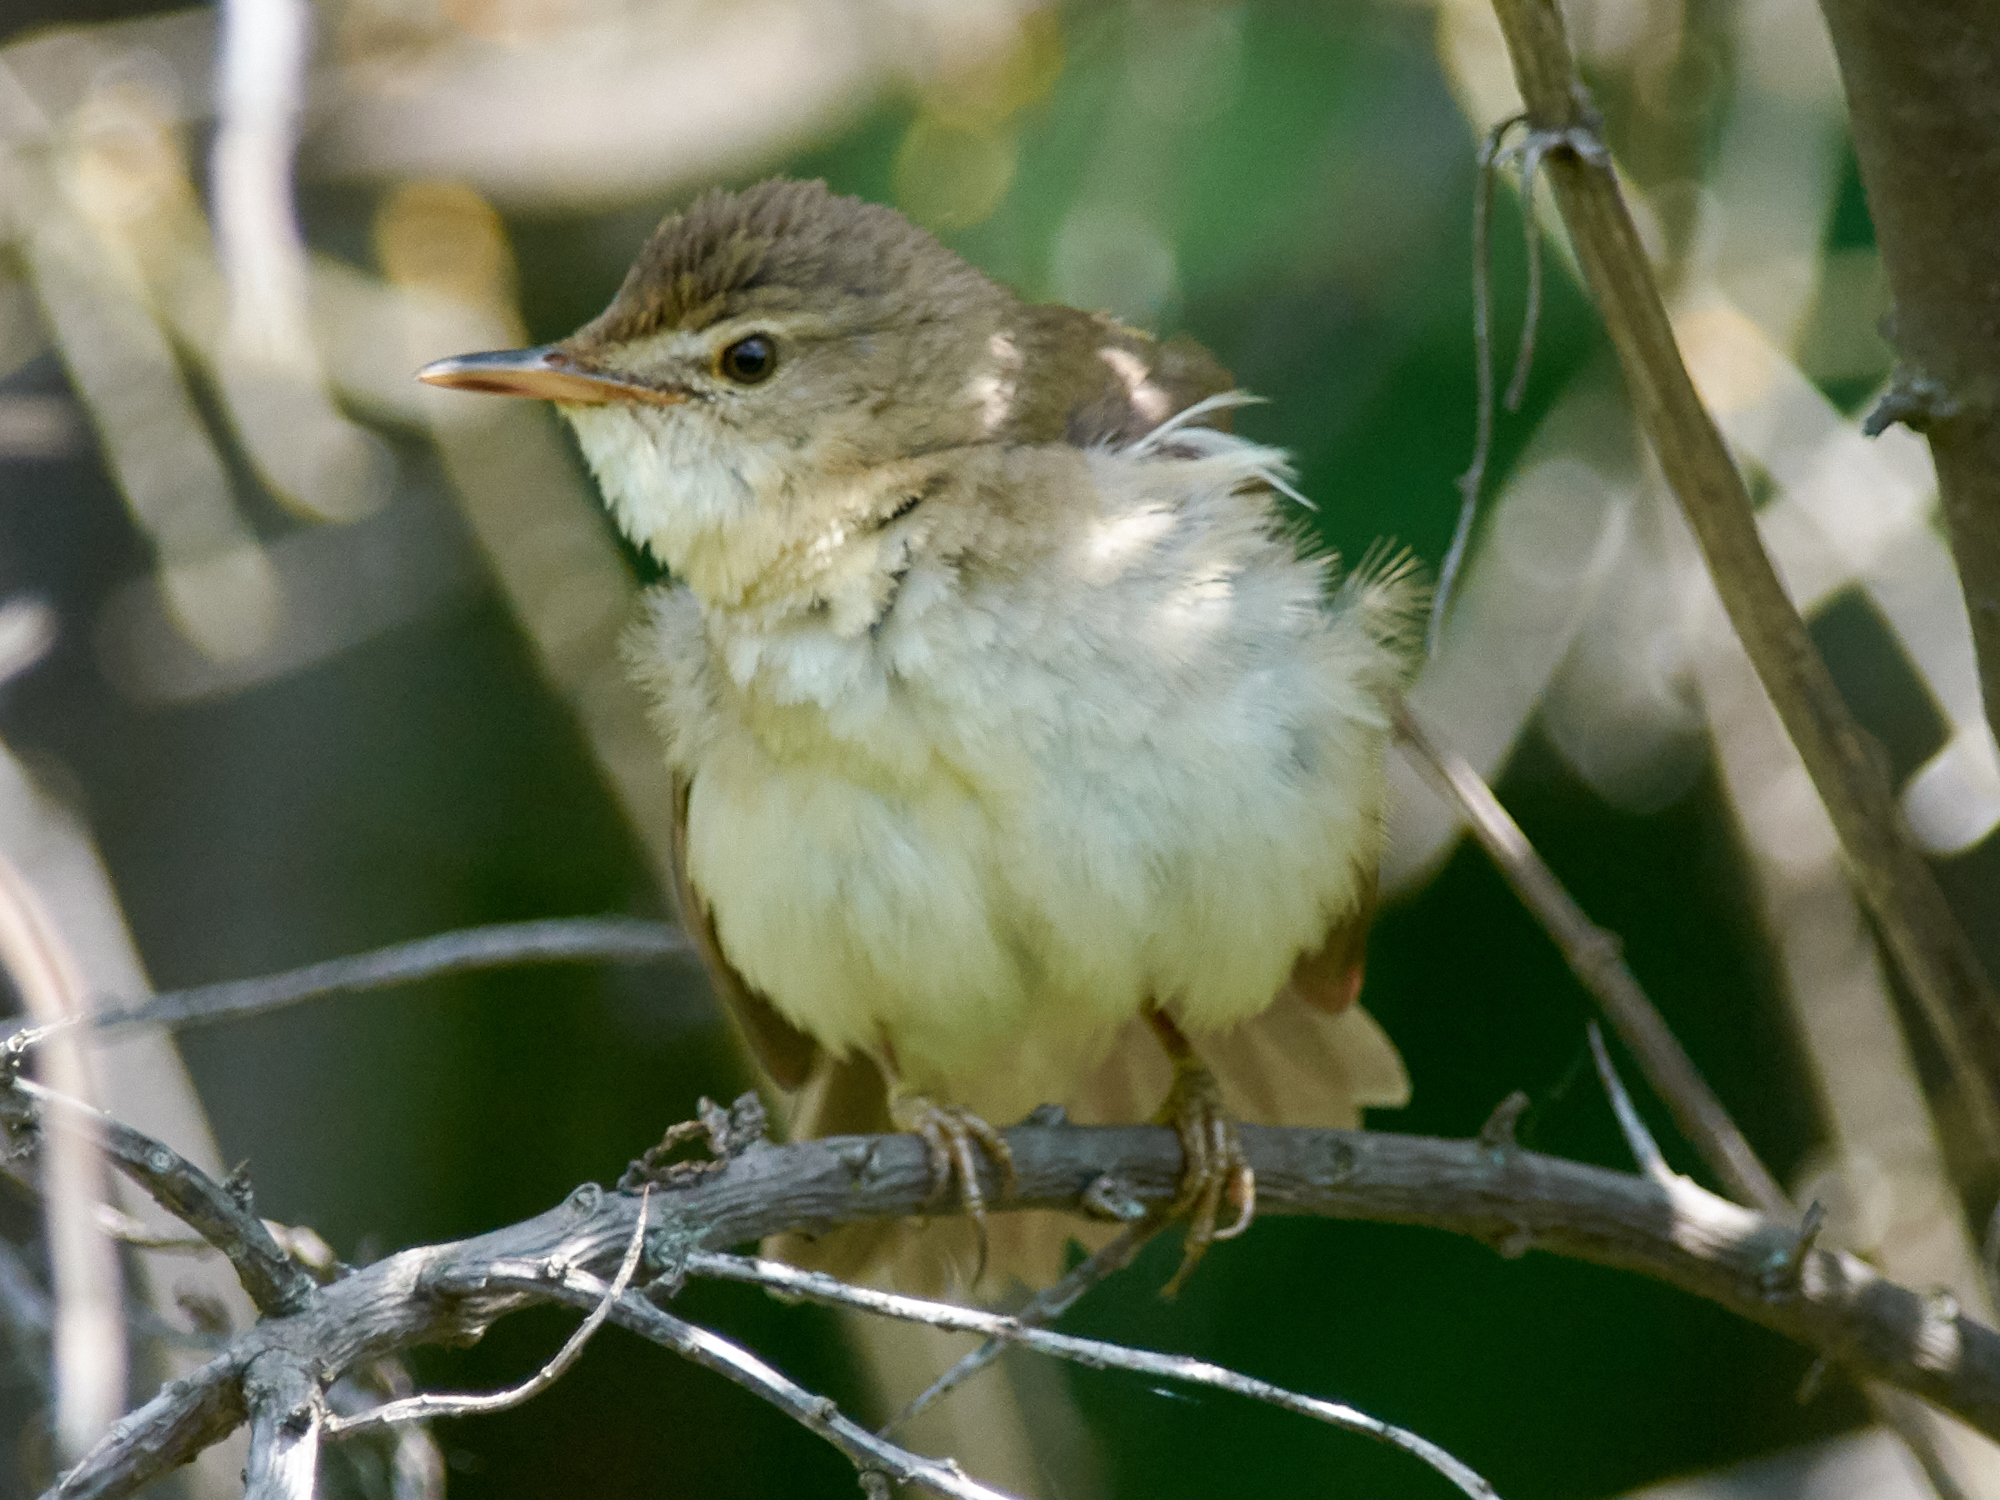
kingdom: Animalia
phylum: Chordata
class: Aves
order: Passeriformes
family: Acrocephalidae
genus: Acrocephalus
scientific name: Acrocephalus dumetorum
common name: Blyth's reed warbler
